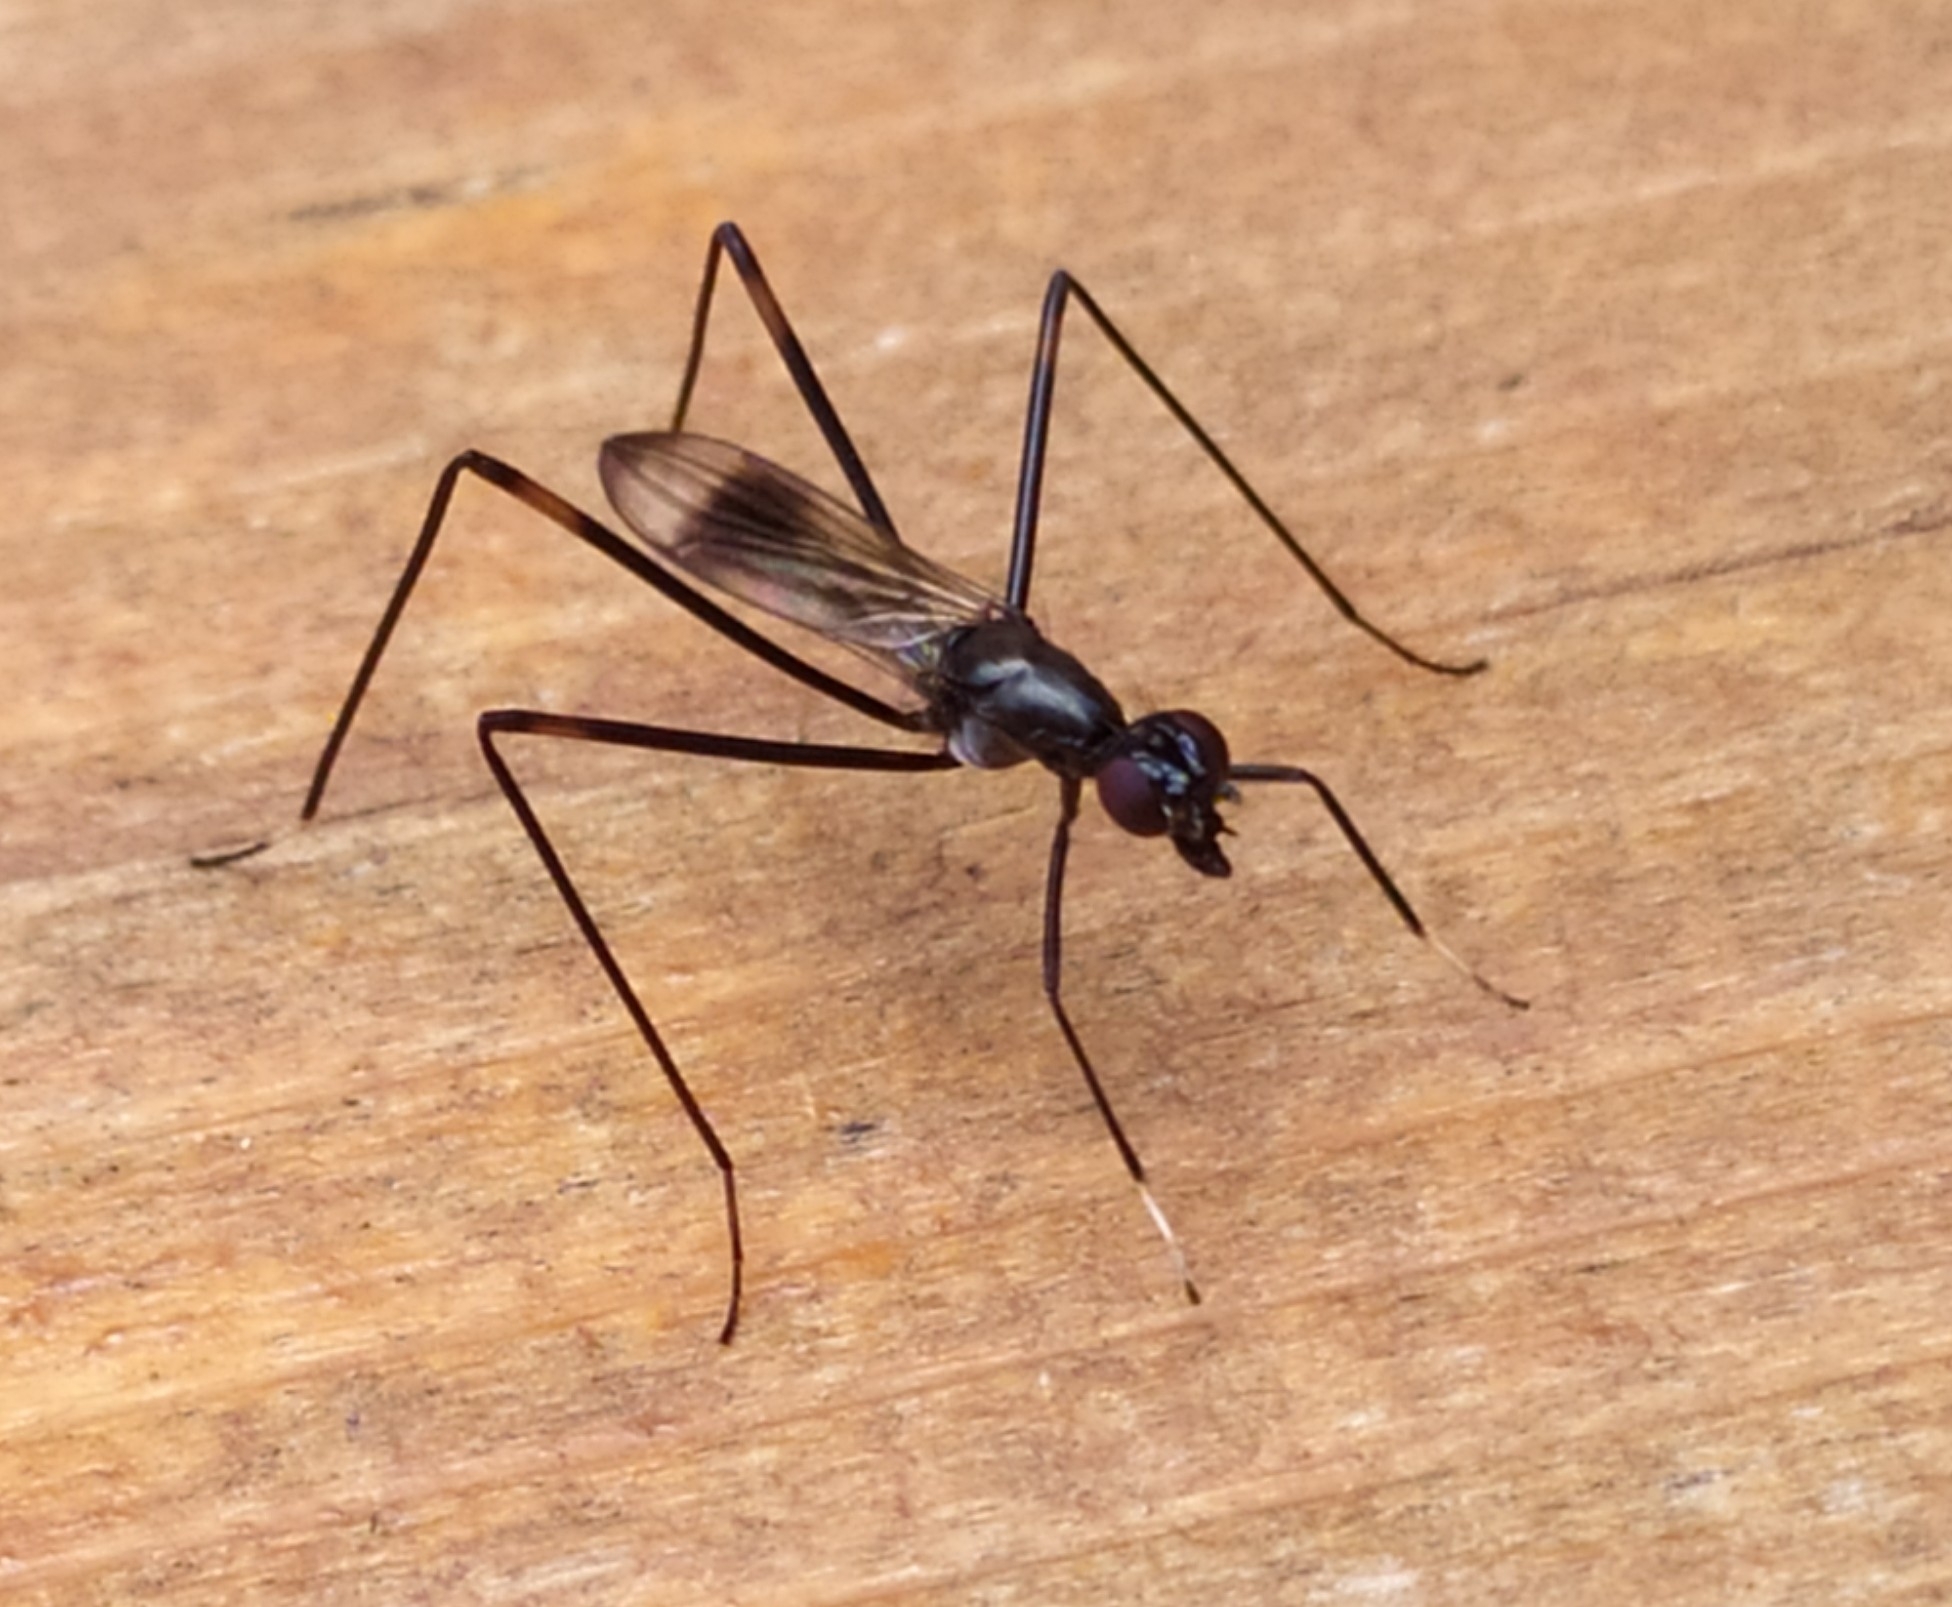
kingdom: Animalia
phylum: Arthropoda
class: Insecta
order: Diptera
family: Micropezidae
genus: Rainieria
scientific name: Rainieria calceata
